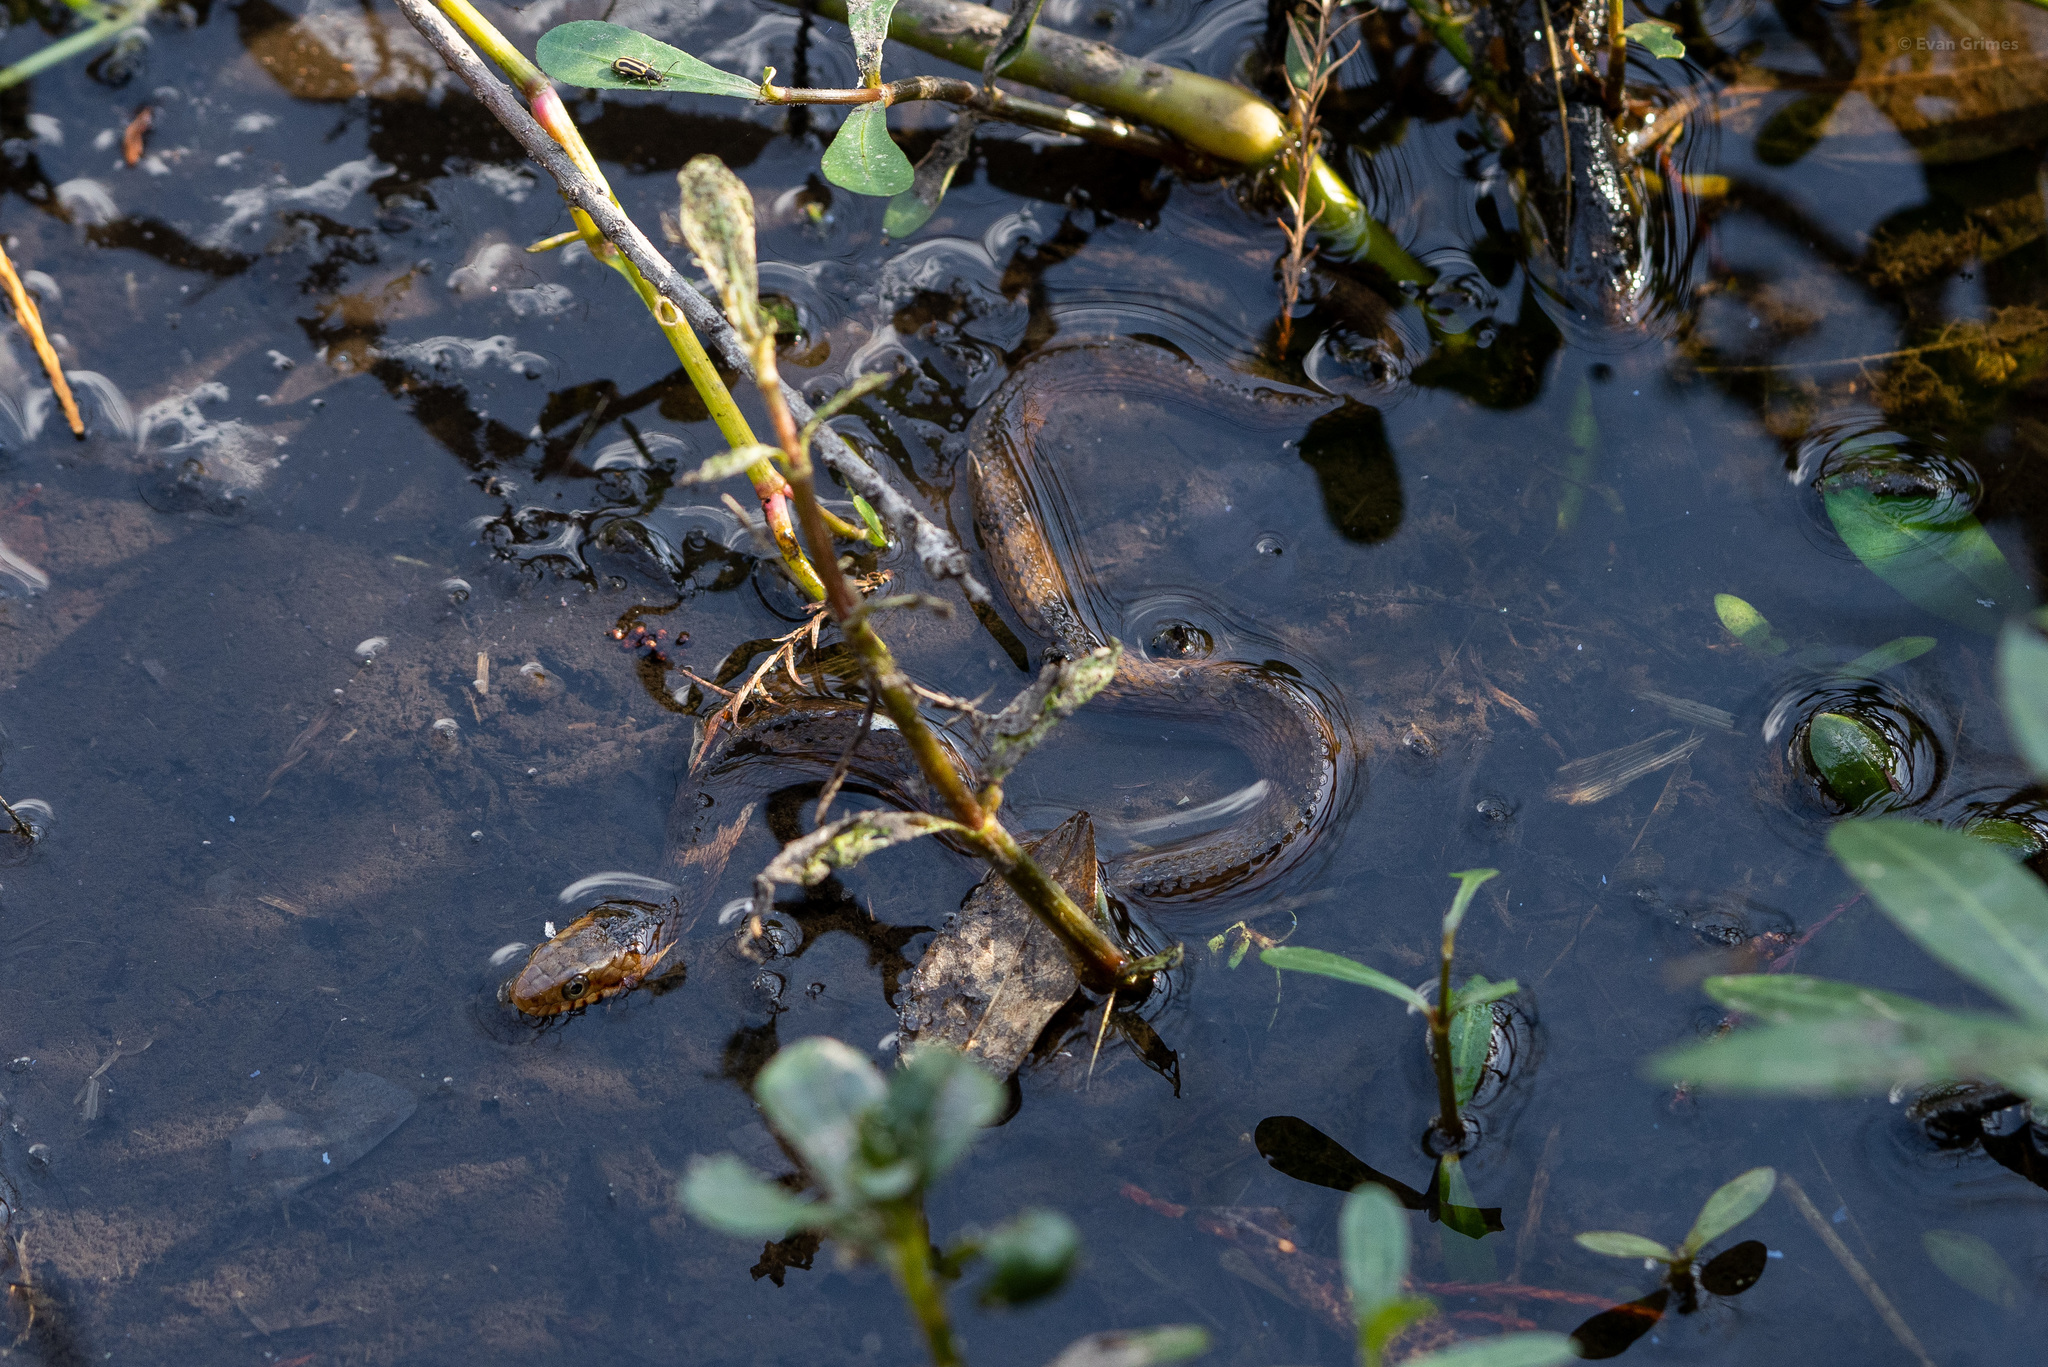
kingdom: Animalia
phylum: Chordata
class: Squamata
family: Colubridae
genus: Nerodia
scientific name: Nerodia fasciata
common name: Southern water snake
